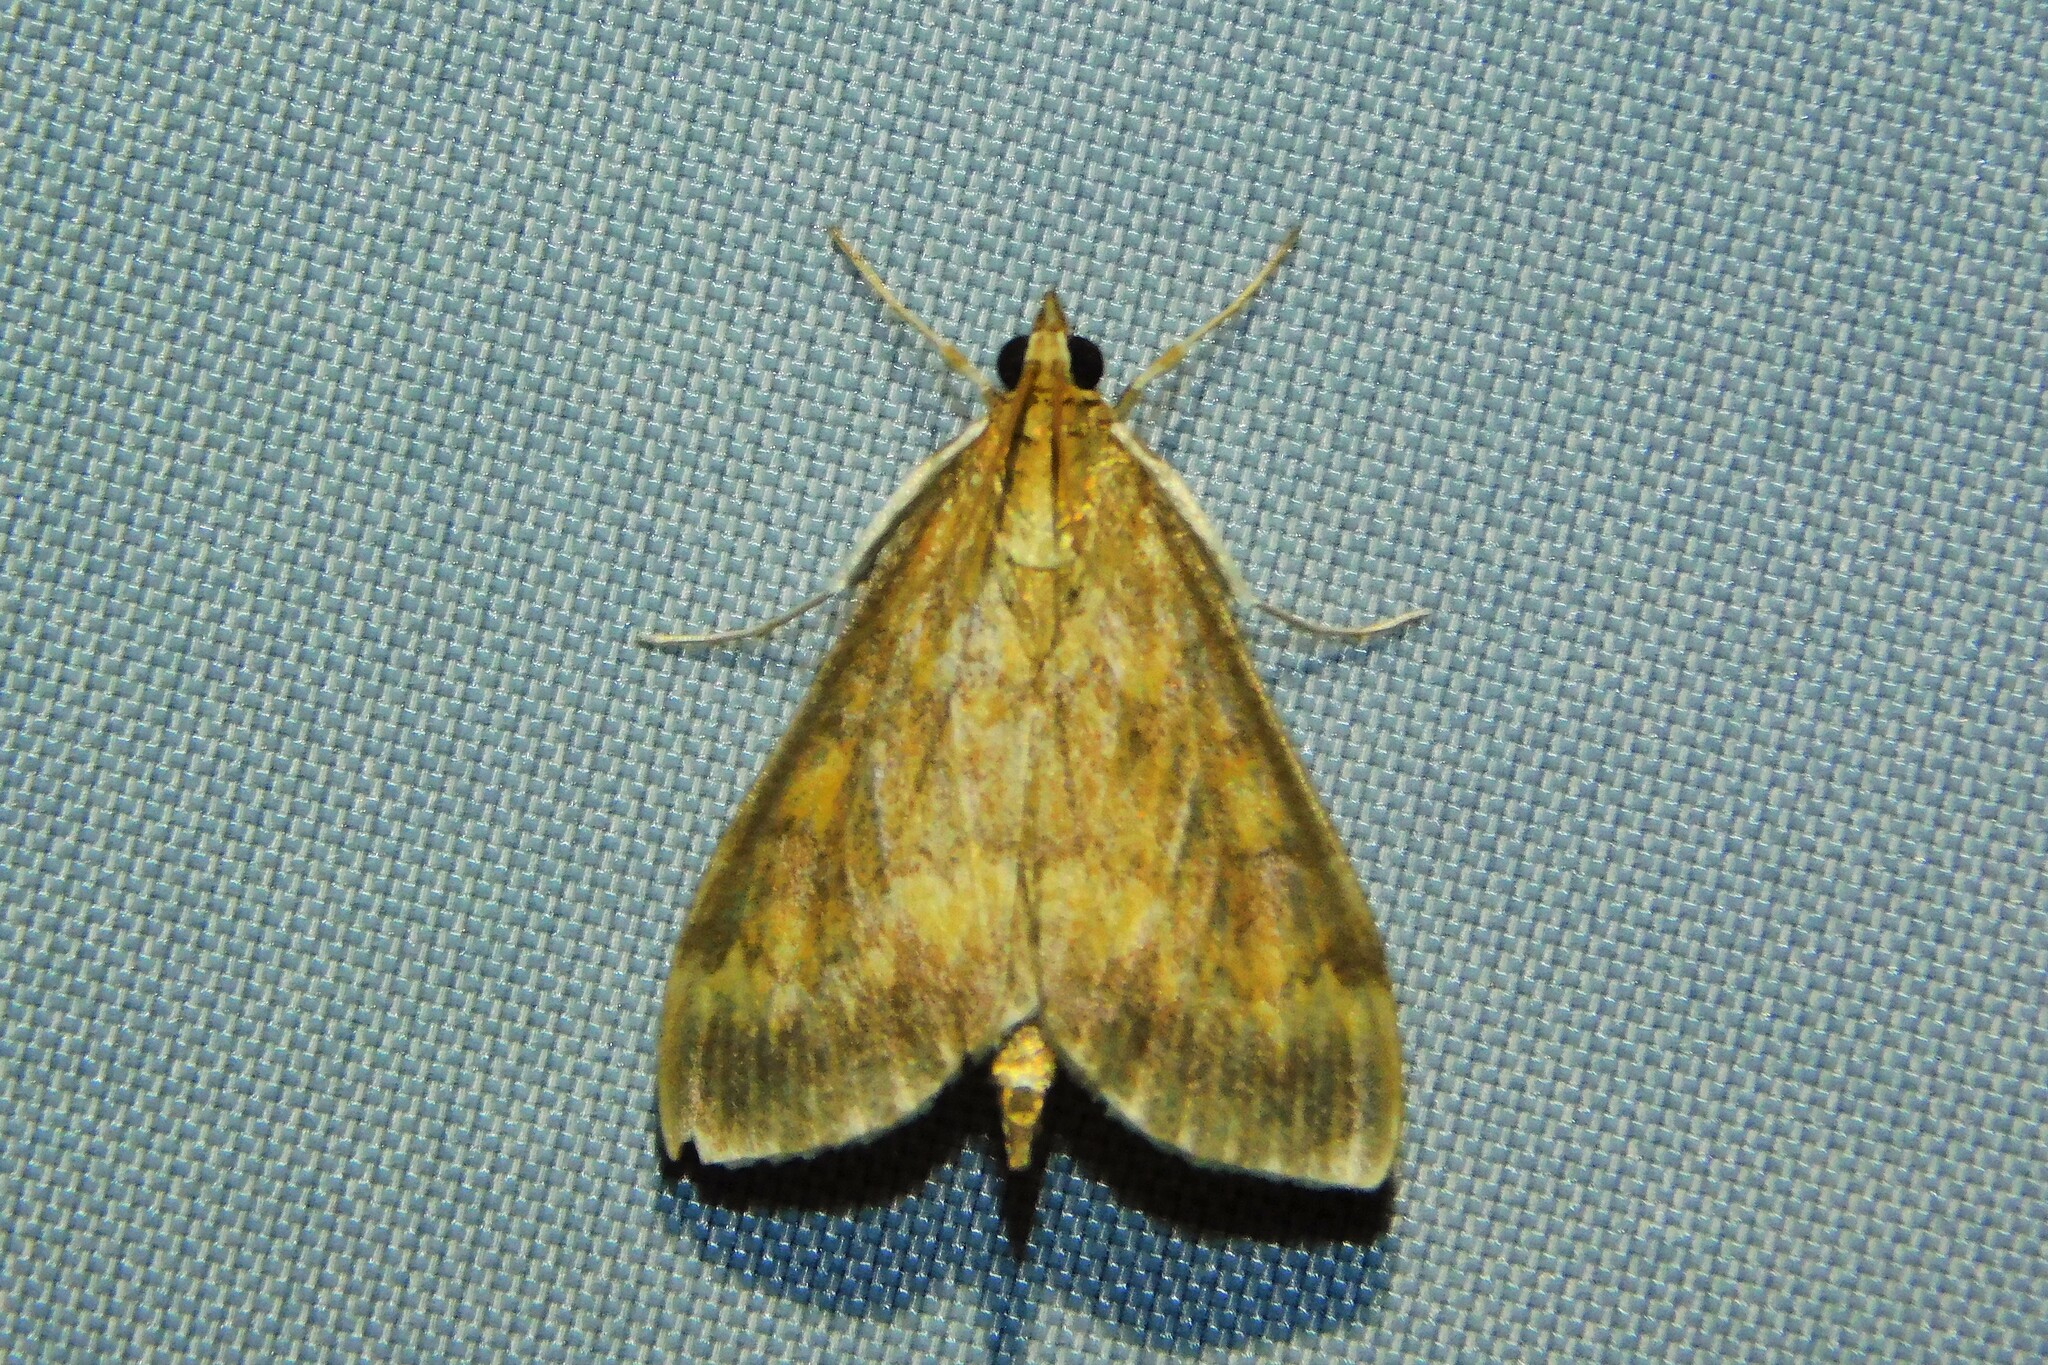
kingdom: Animalia
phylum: Arthropoda
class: Insecta
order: Lepidoptera
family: Crambidae
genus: Ostrinia
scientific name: Ostrinia nubilalis
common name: European corn borer
